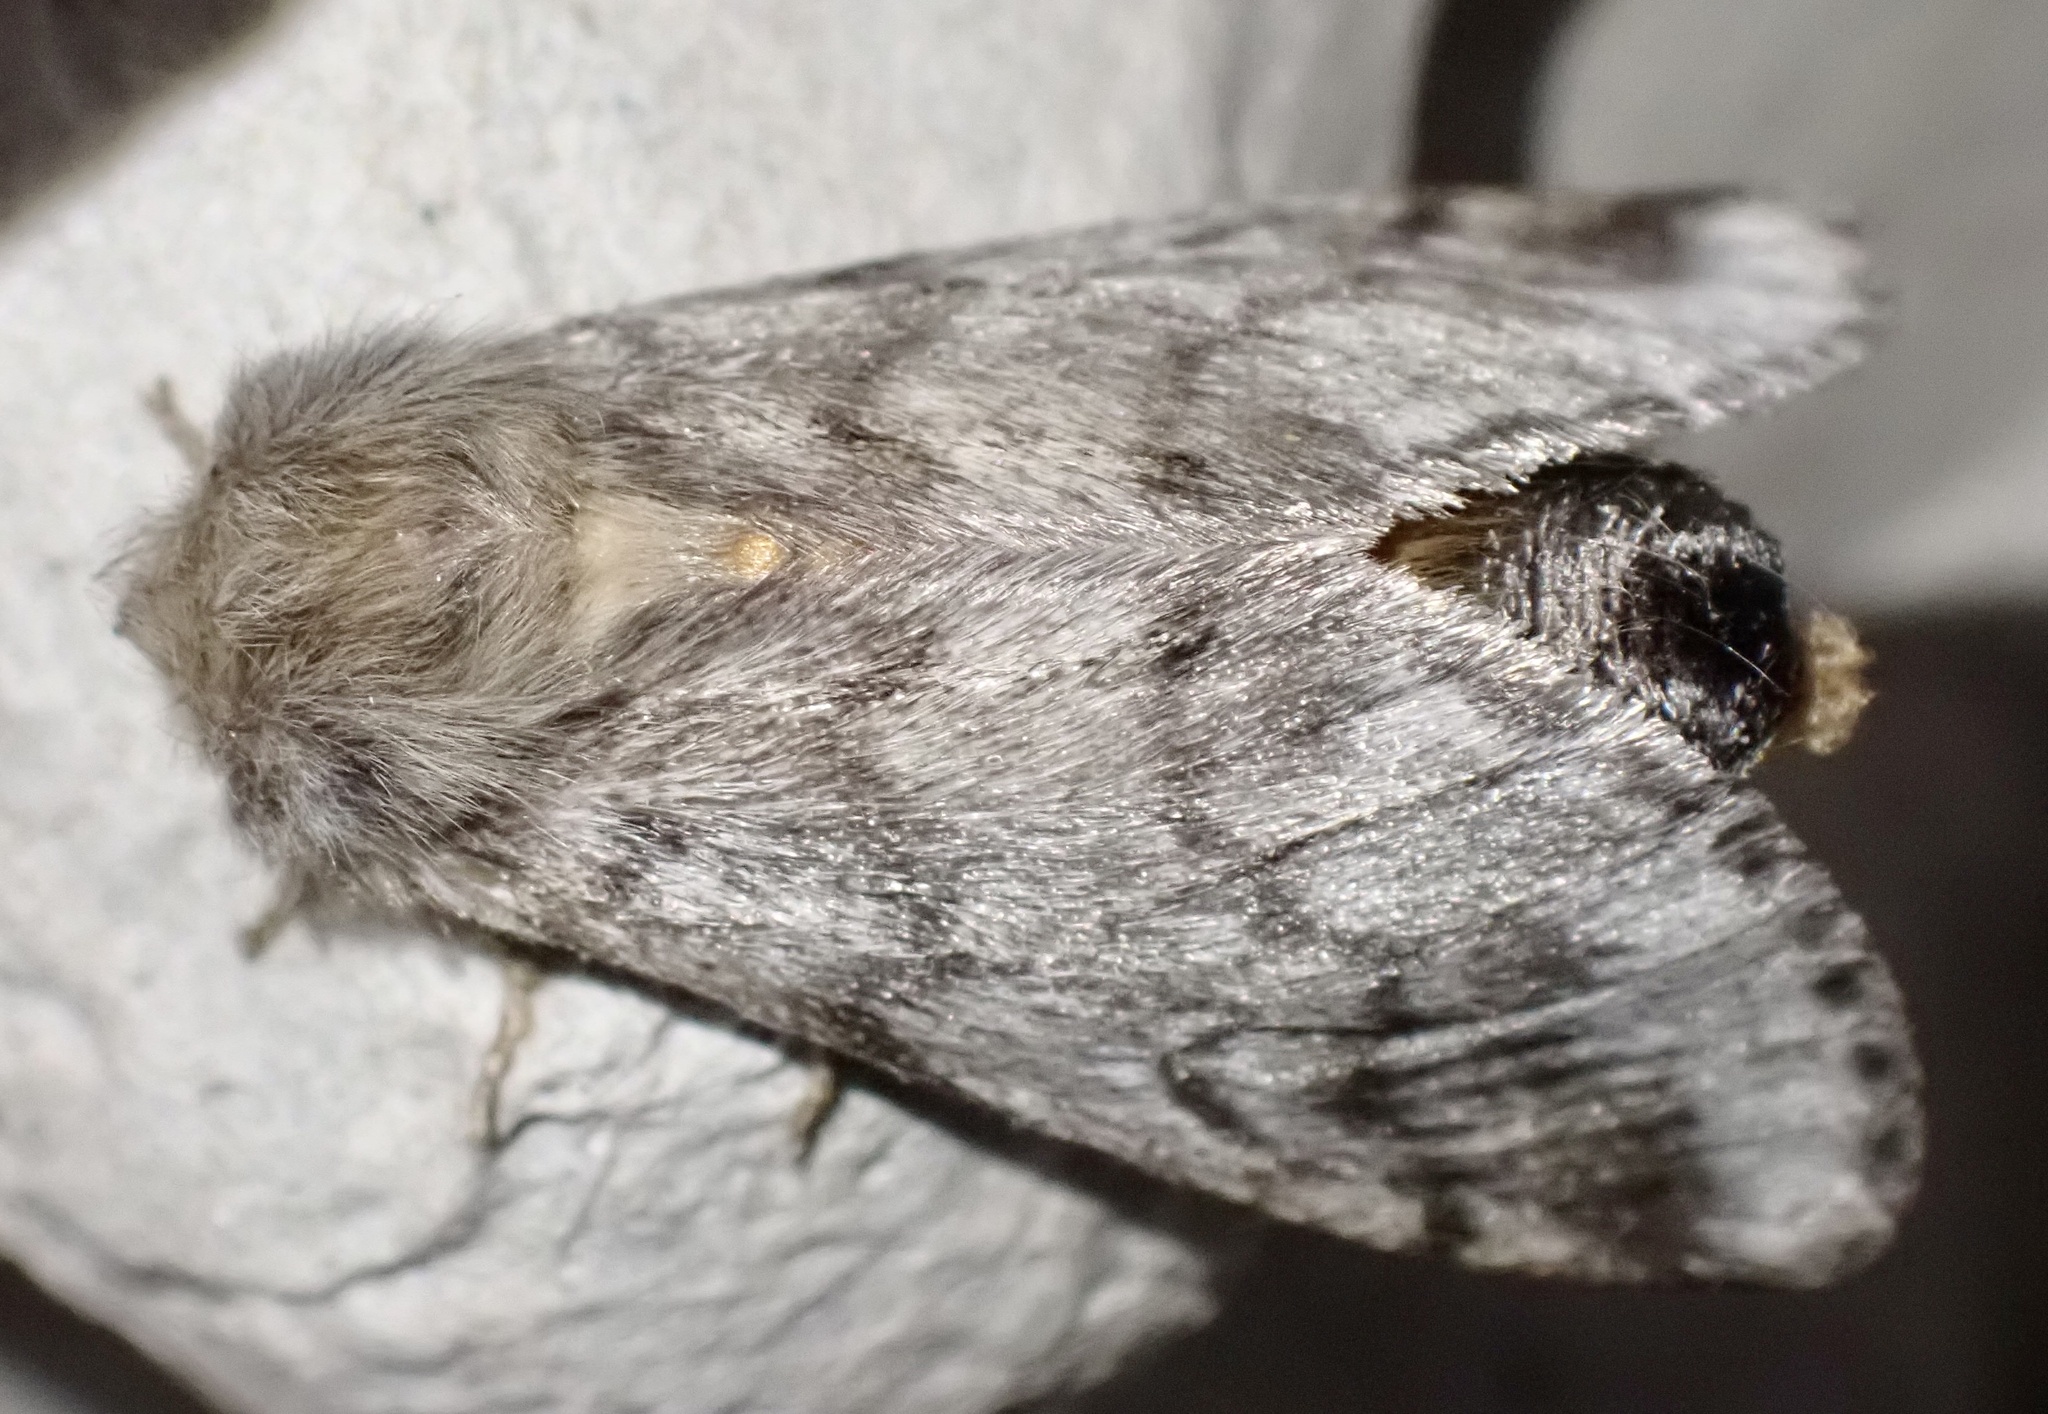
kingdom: Animalia
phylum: Arthropoda
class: Insecta
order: Lepidoptera
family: Notodontidae
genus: Thaumetopoea
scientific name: Thaumetopoea pityocampa
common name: Pine processionary
